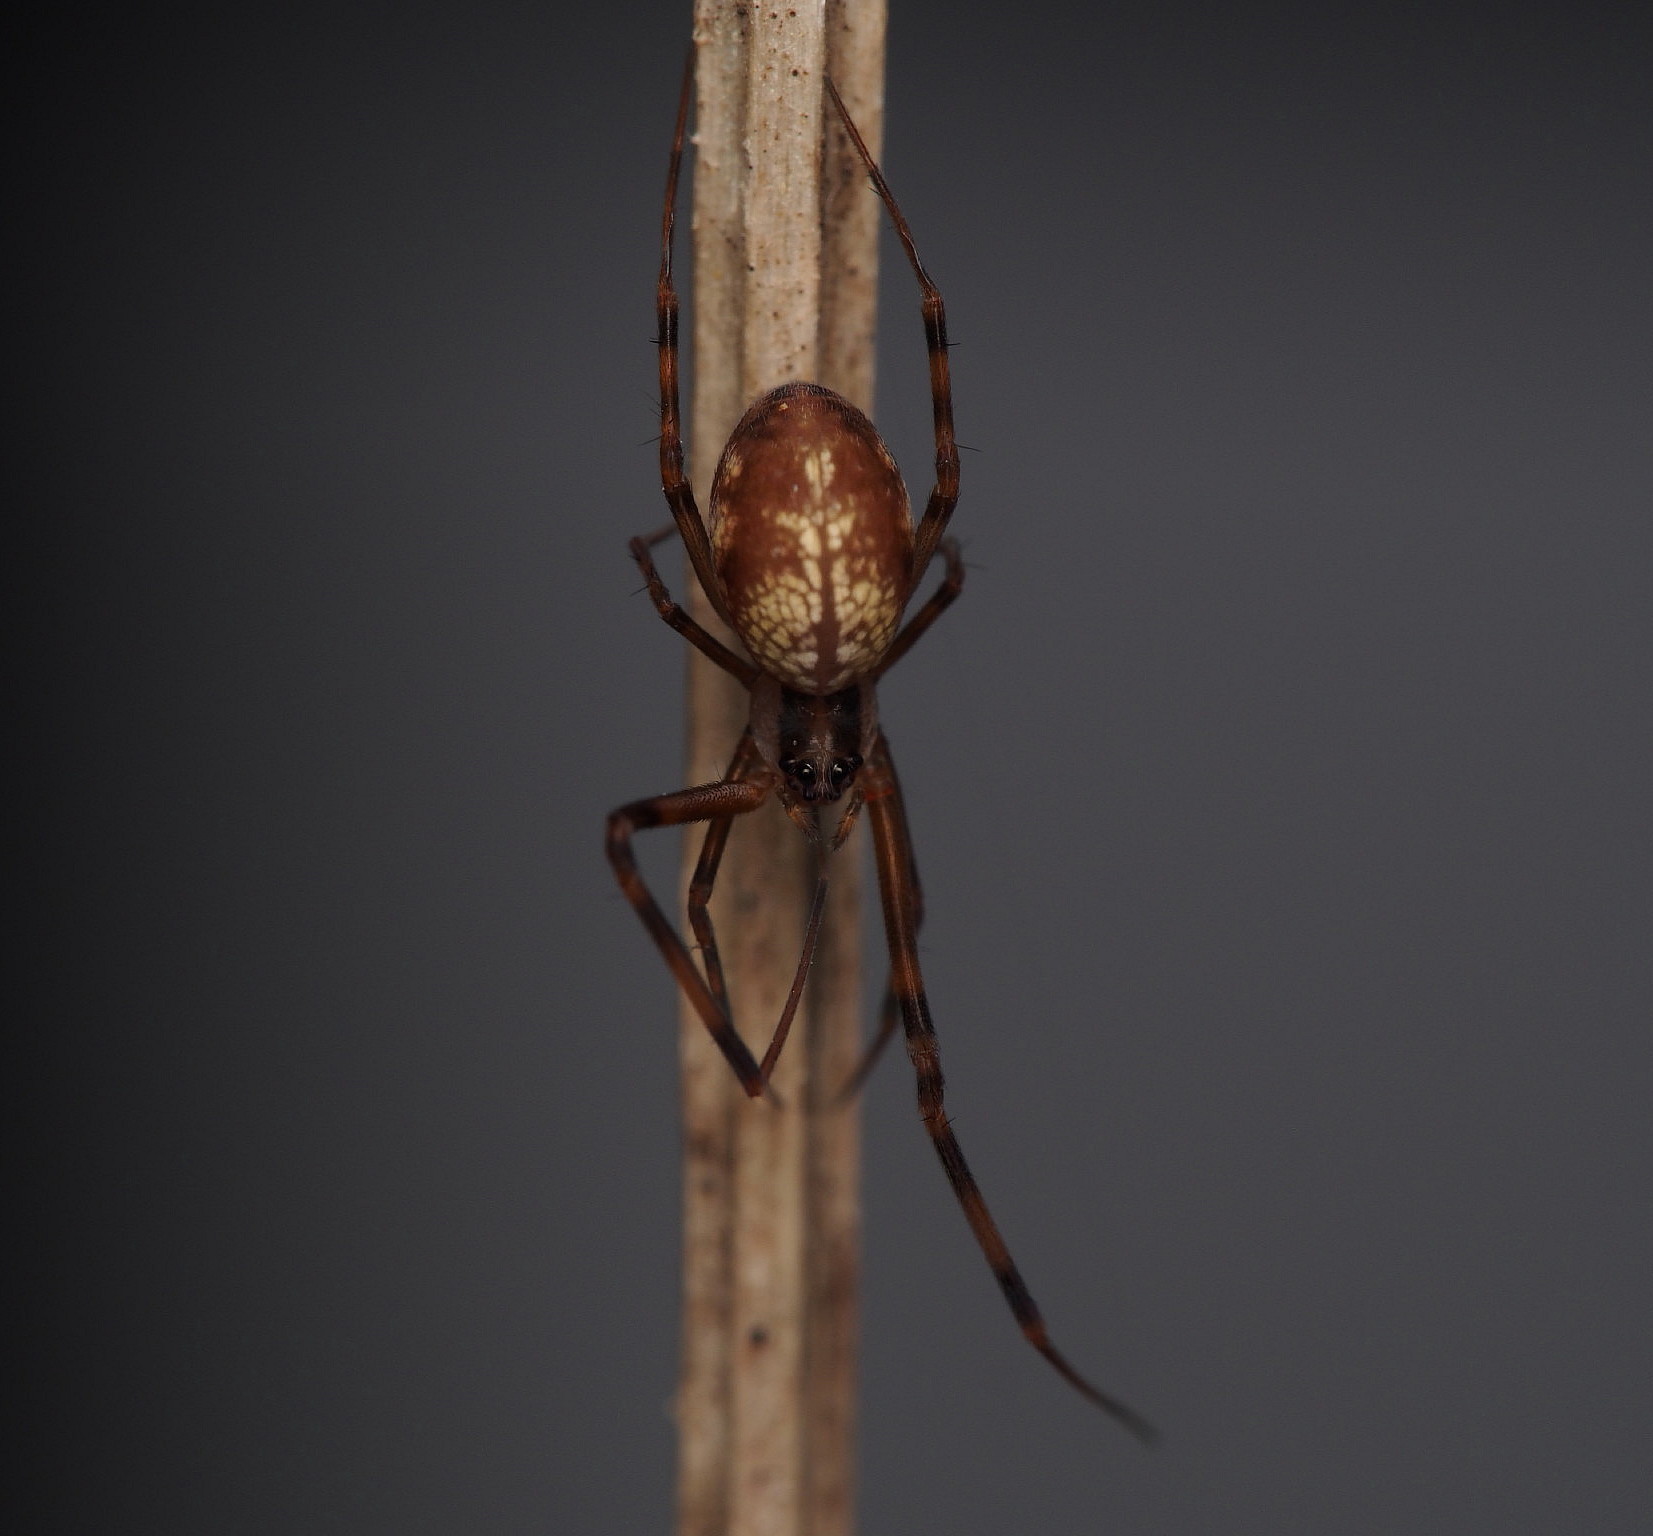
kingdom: Animalia
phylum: Arthropoda
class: Arachnida
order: Araneae
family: Uloboridae
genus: Waitkera
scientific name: Waitkera waitakerensis
